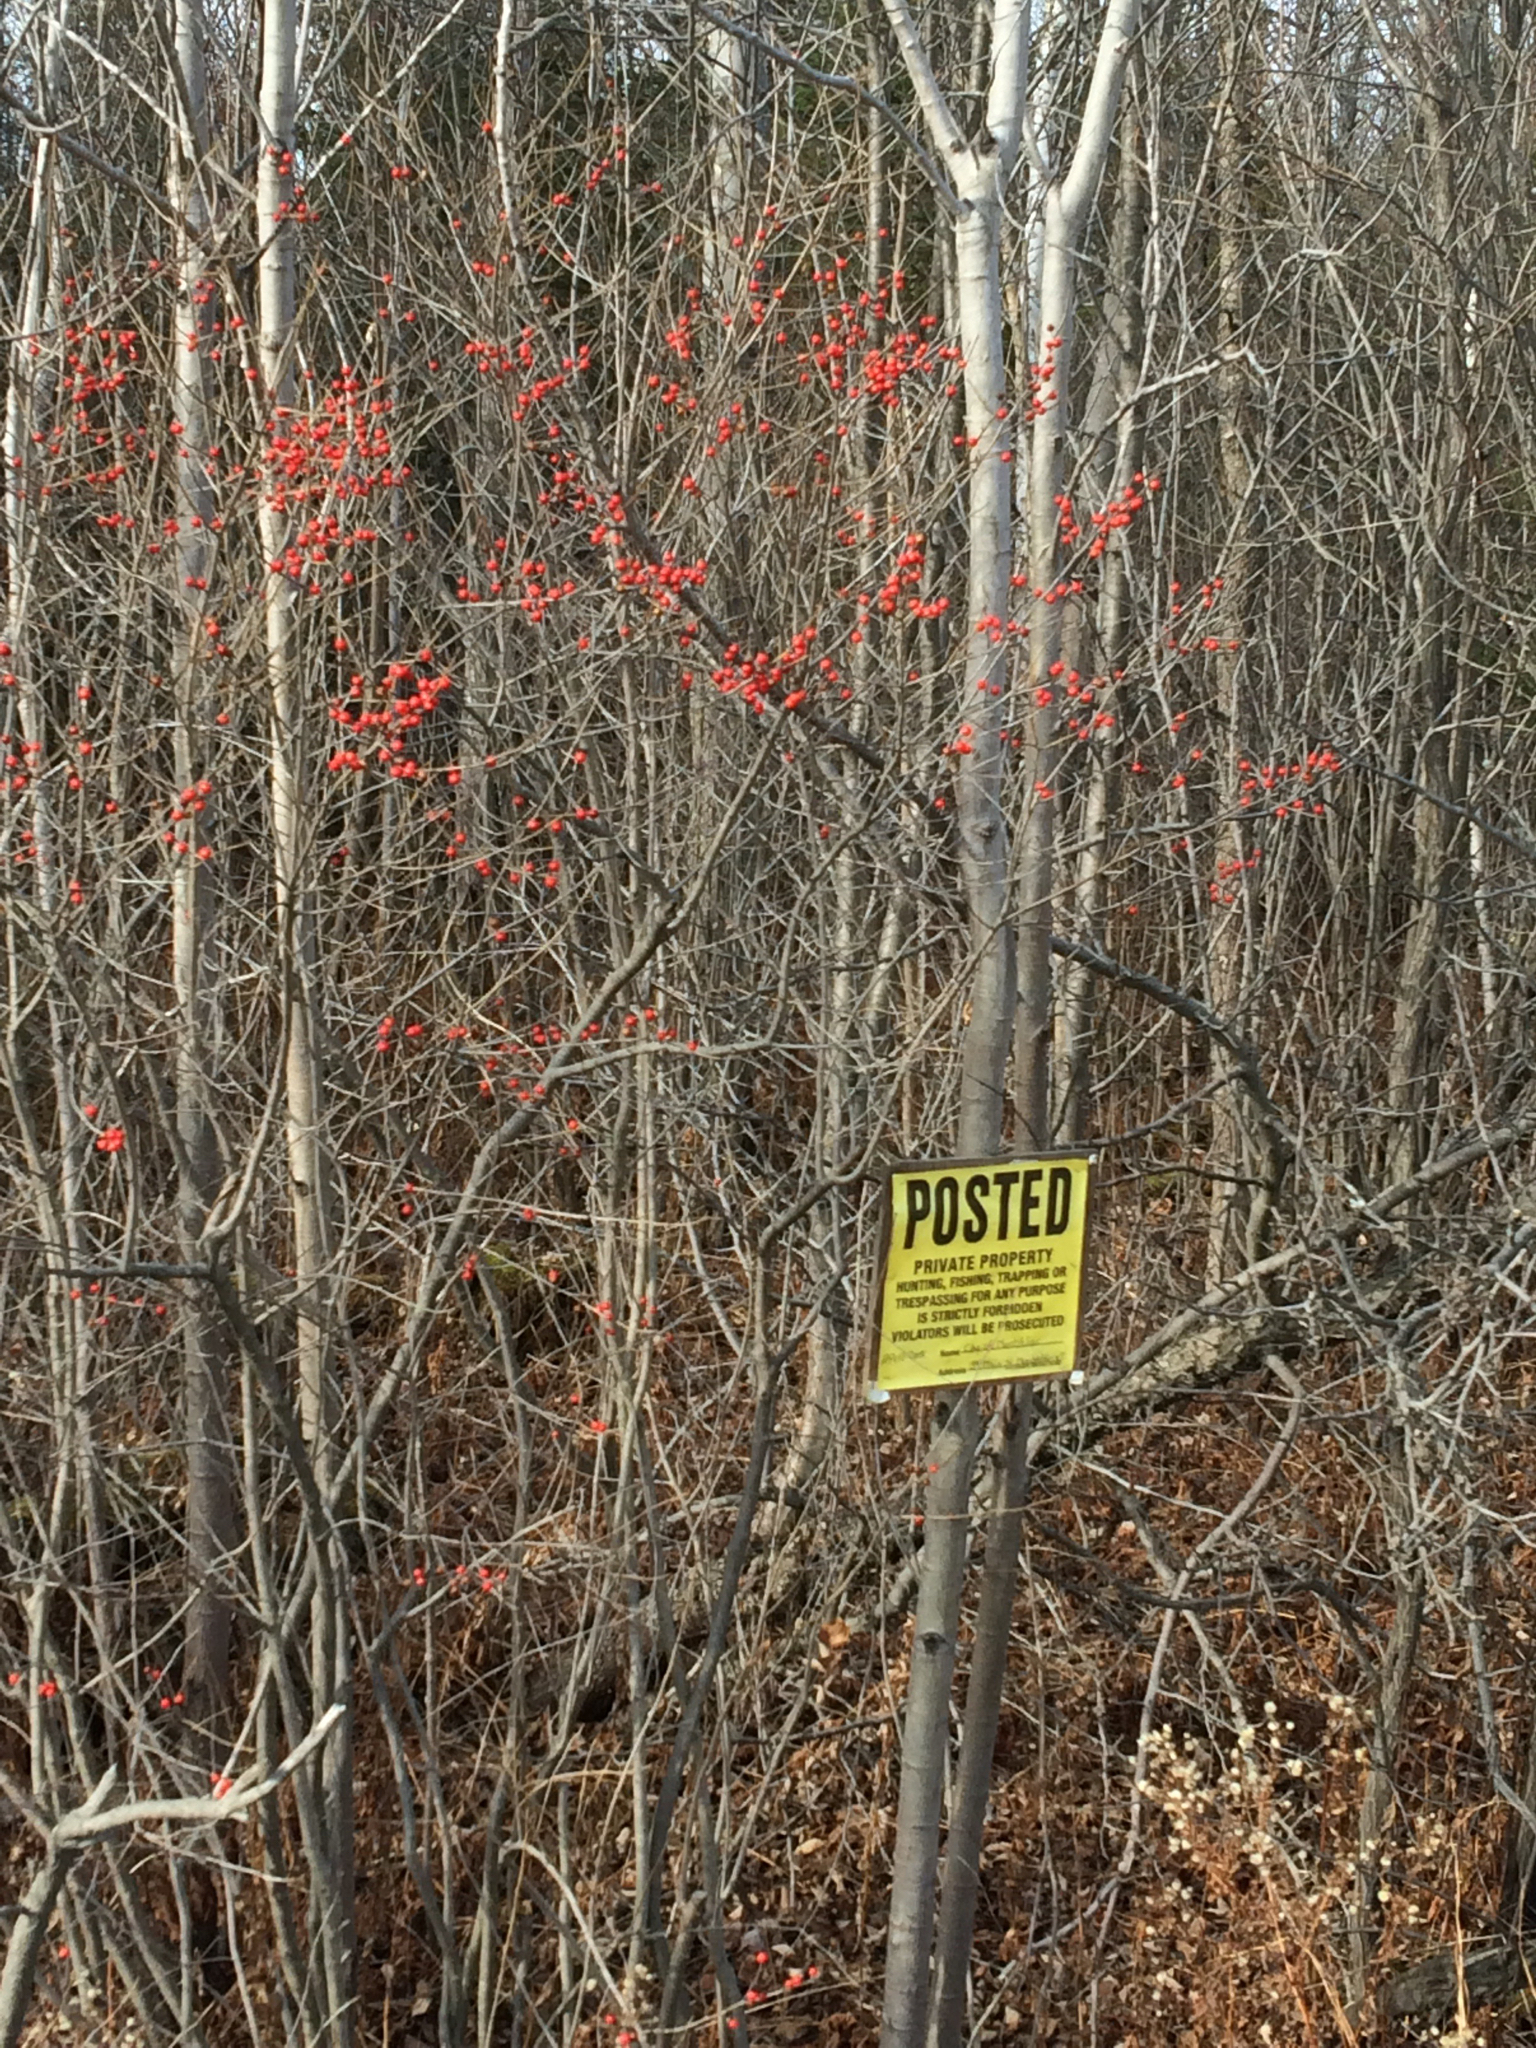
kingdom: Plantae
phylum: Tracheophyta
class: Magnoliopsida
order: Aquifoliales
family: Aquifoliaceae
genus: Ilex
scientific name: Ilex verticillata
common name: Virginia winterberry
